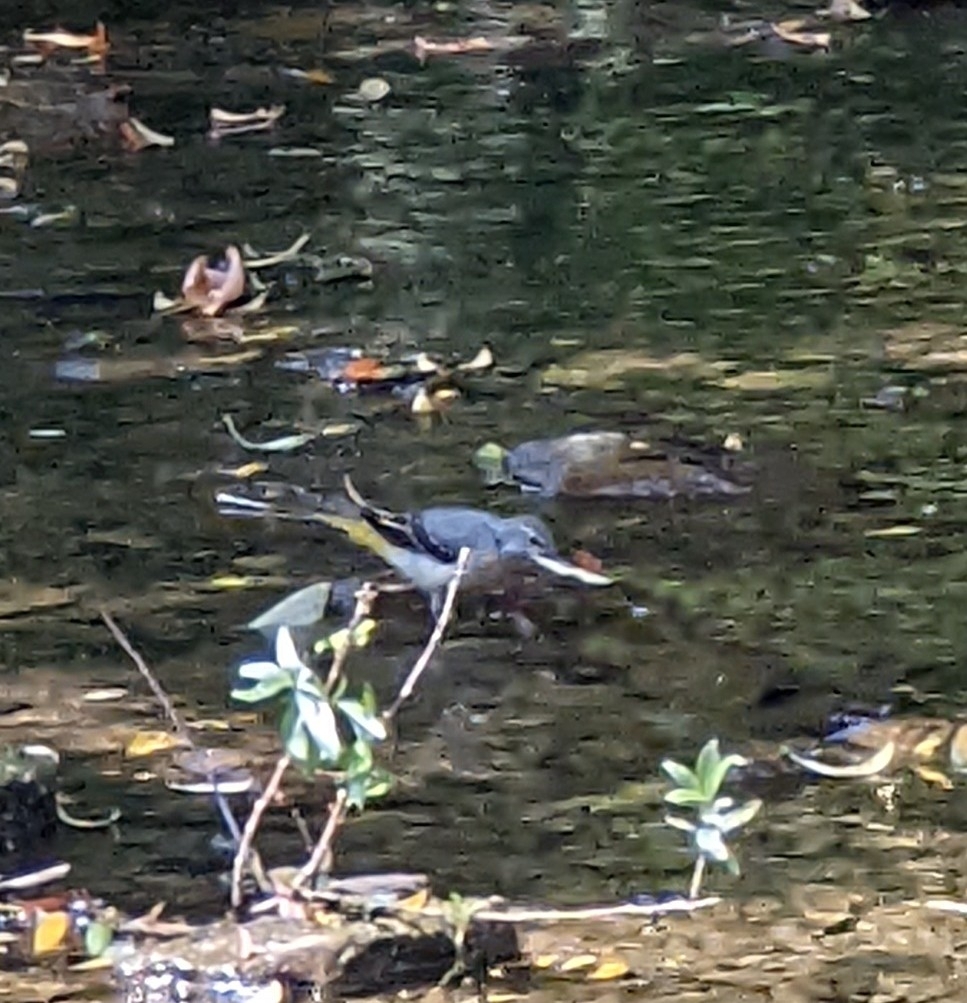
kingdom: Animalia
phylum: Chordata
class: Aves
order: Passeriformes
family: Motacillidae
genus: Motacilla
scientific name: Motacilla cinerea
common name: Grey wagtail
